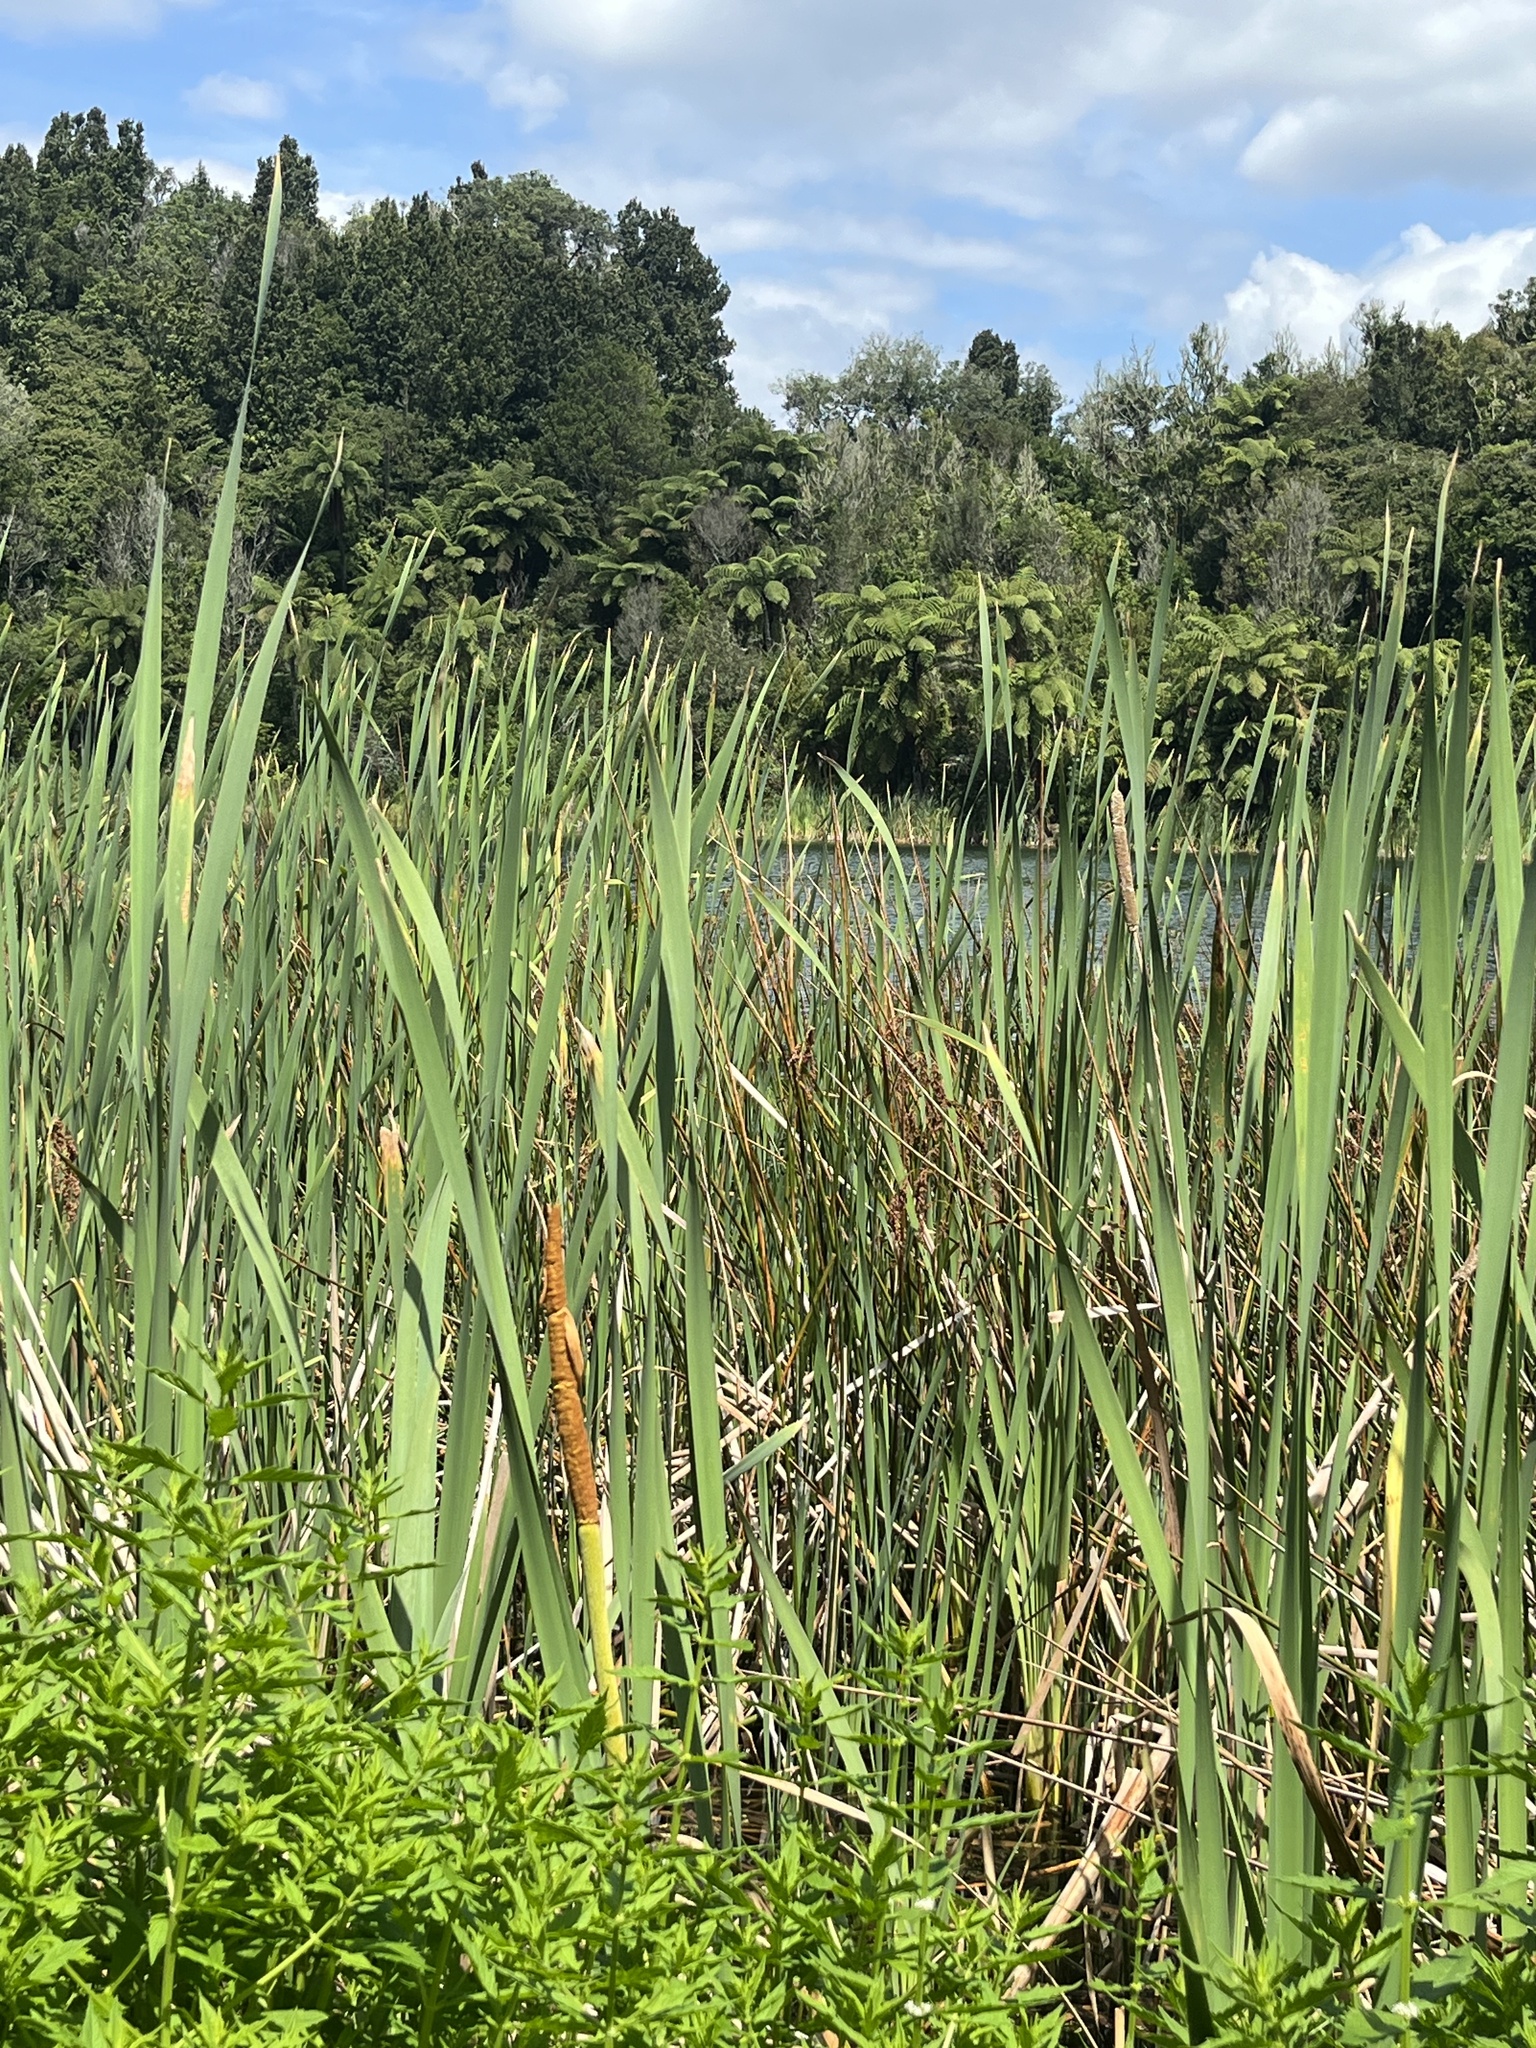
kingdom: Plantae
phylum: Tracheophyta
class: Liliopsida
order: Poales
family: Typhaceae
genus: Typha
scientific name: Typha orientalis
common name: Bullrush
